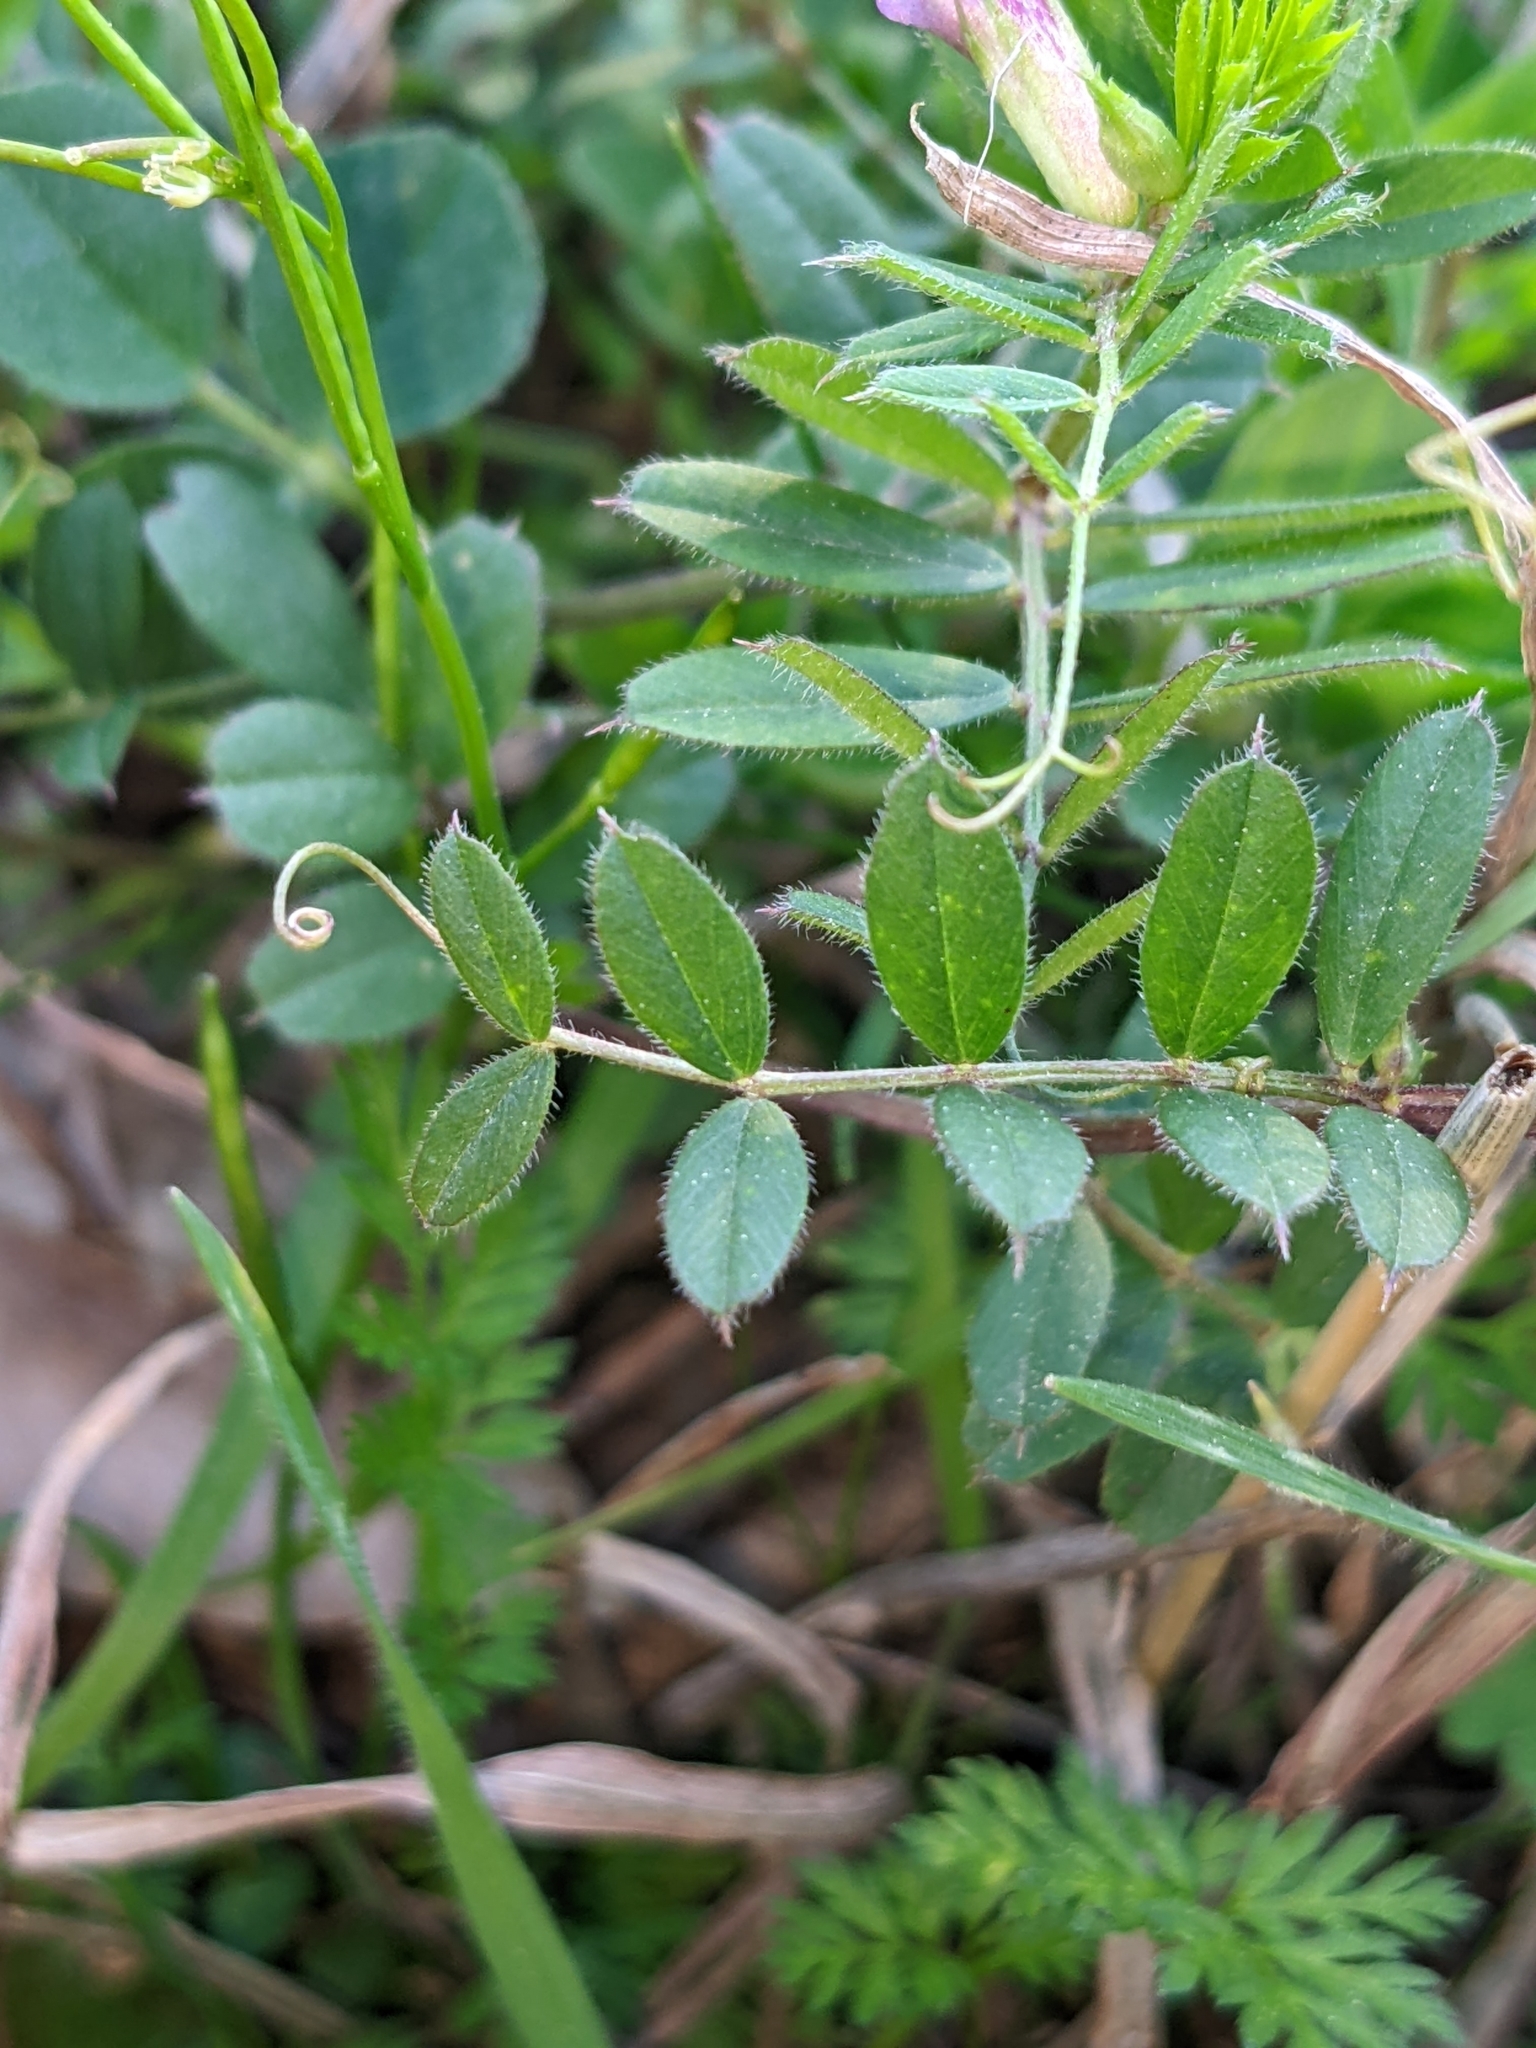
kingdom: Plantae
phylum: Tracheophyta
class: Magnoliopsida
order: Fabales
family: Fabaceae
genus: Vicia
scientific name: Vicia sativa
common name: Garden vetch
